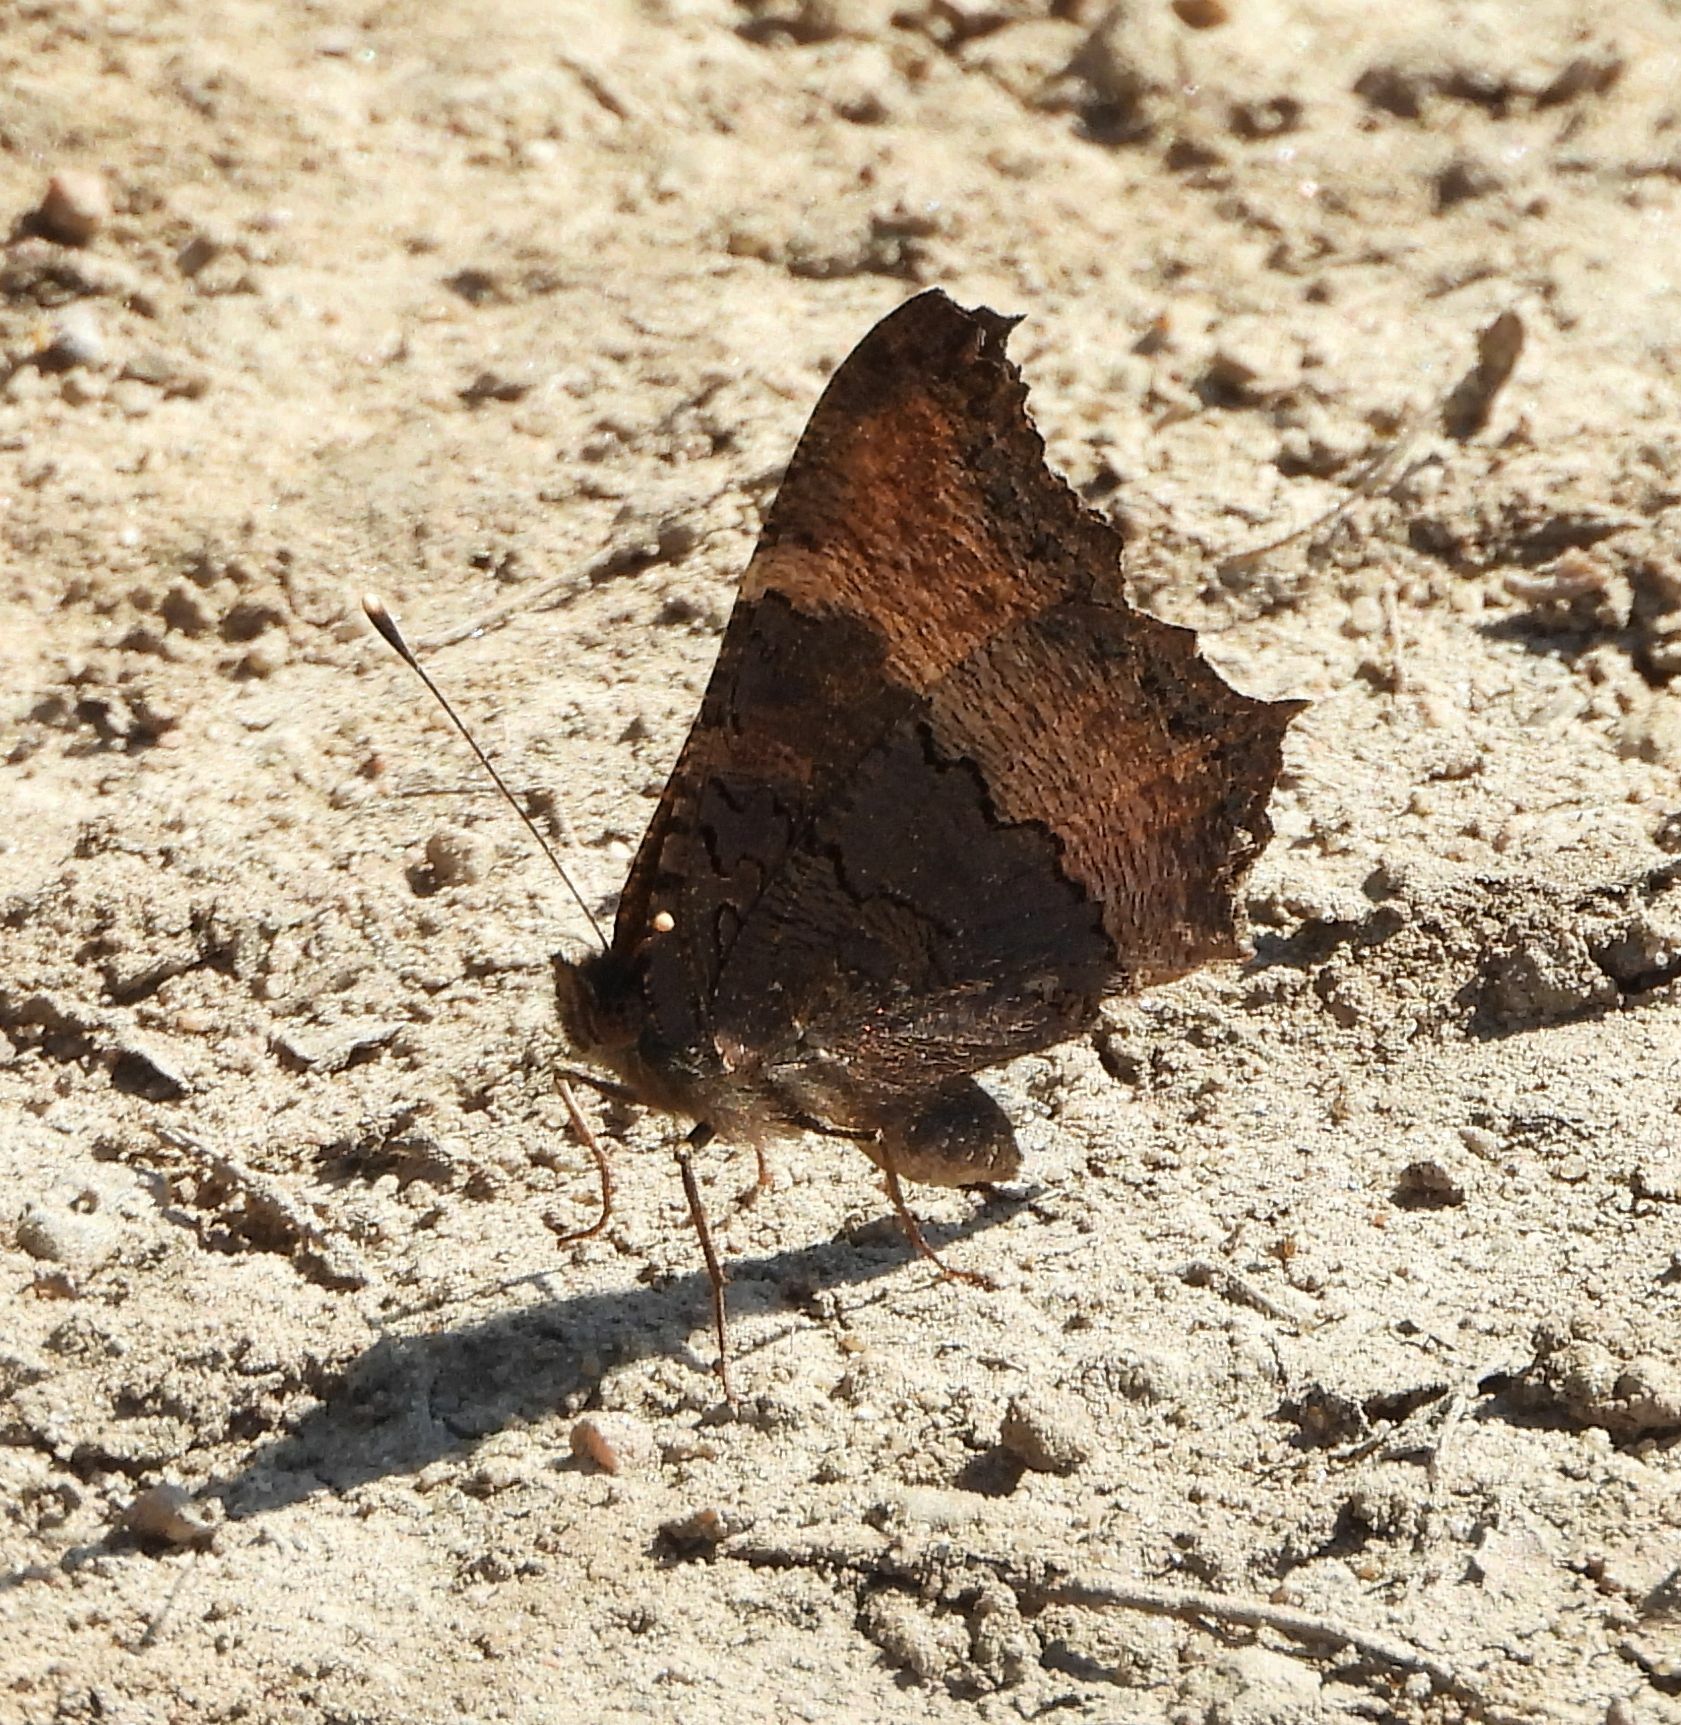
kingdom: Animalia
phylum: Arthropoda
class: Insecta
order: Lepidoptera
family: Nymphalidae
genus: Aglais
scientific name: Aglais milberti
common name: Milbert's tortoiseshell
